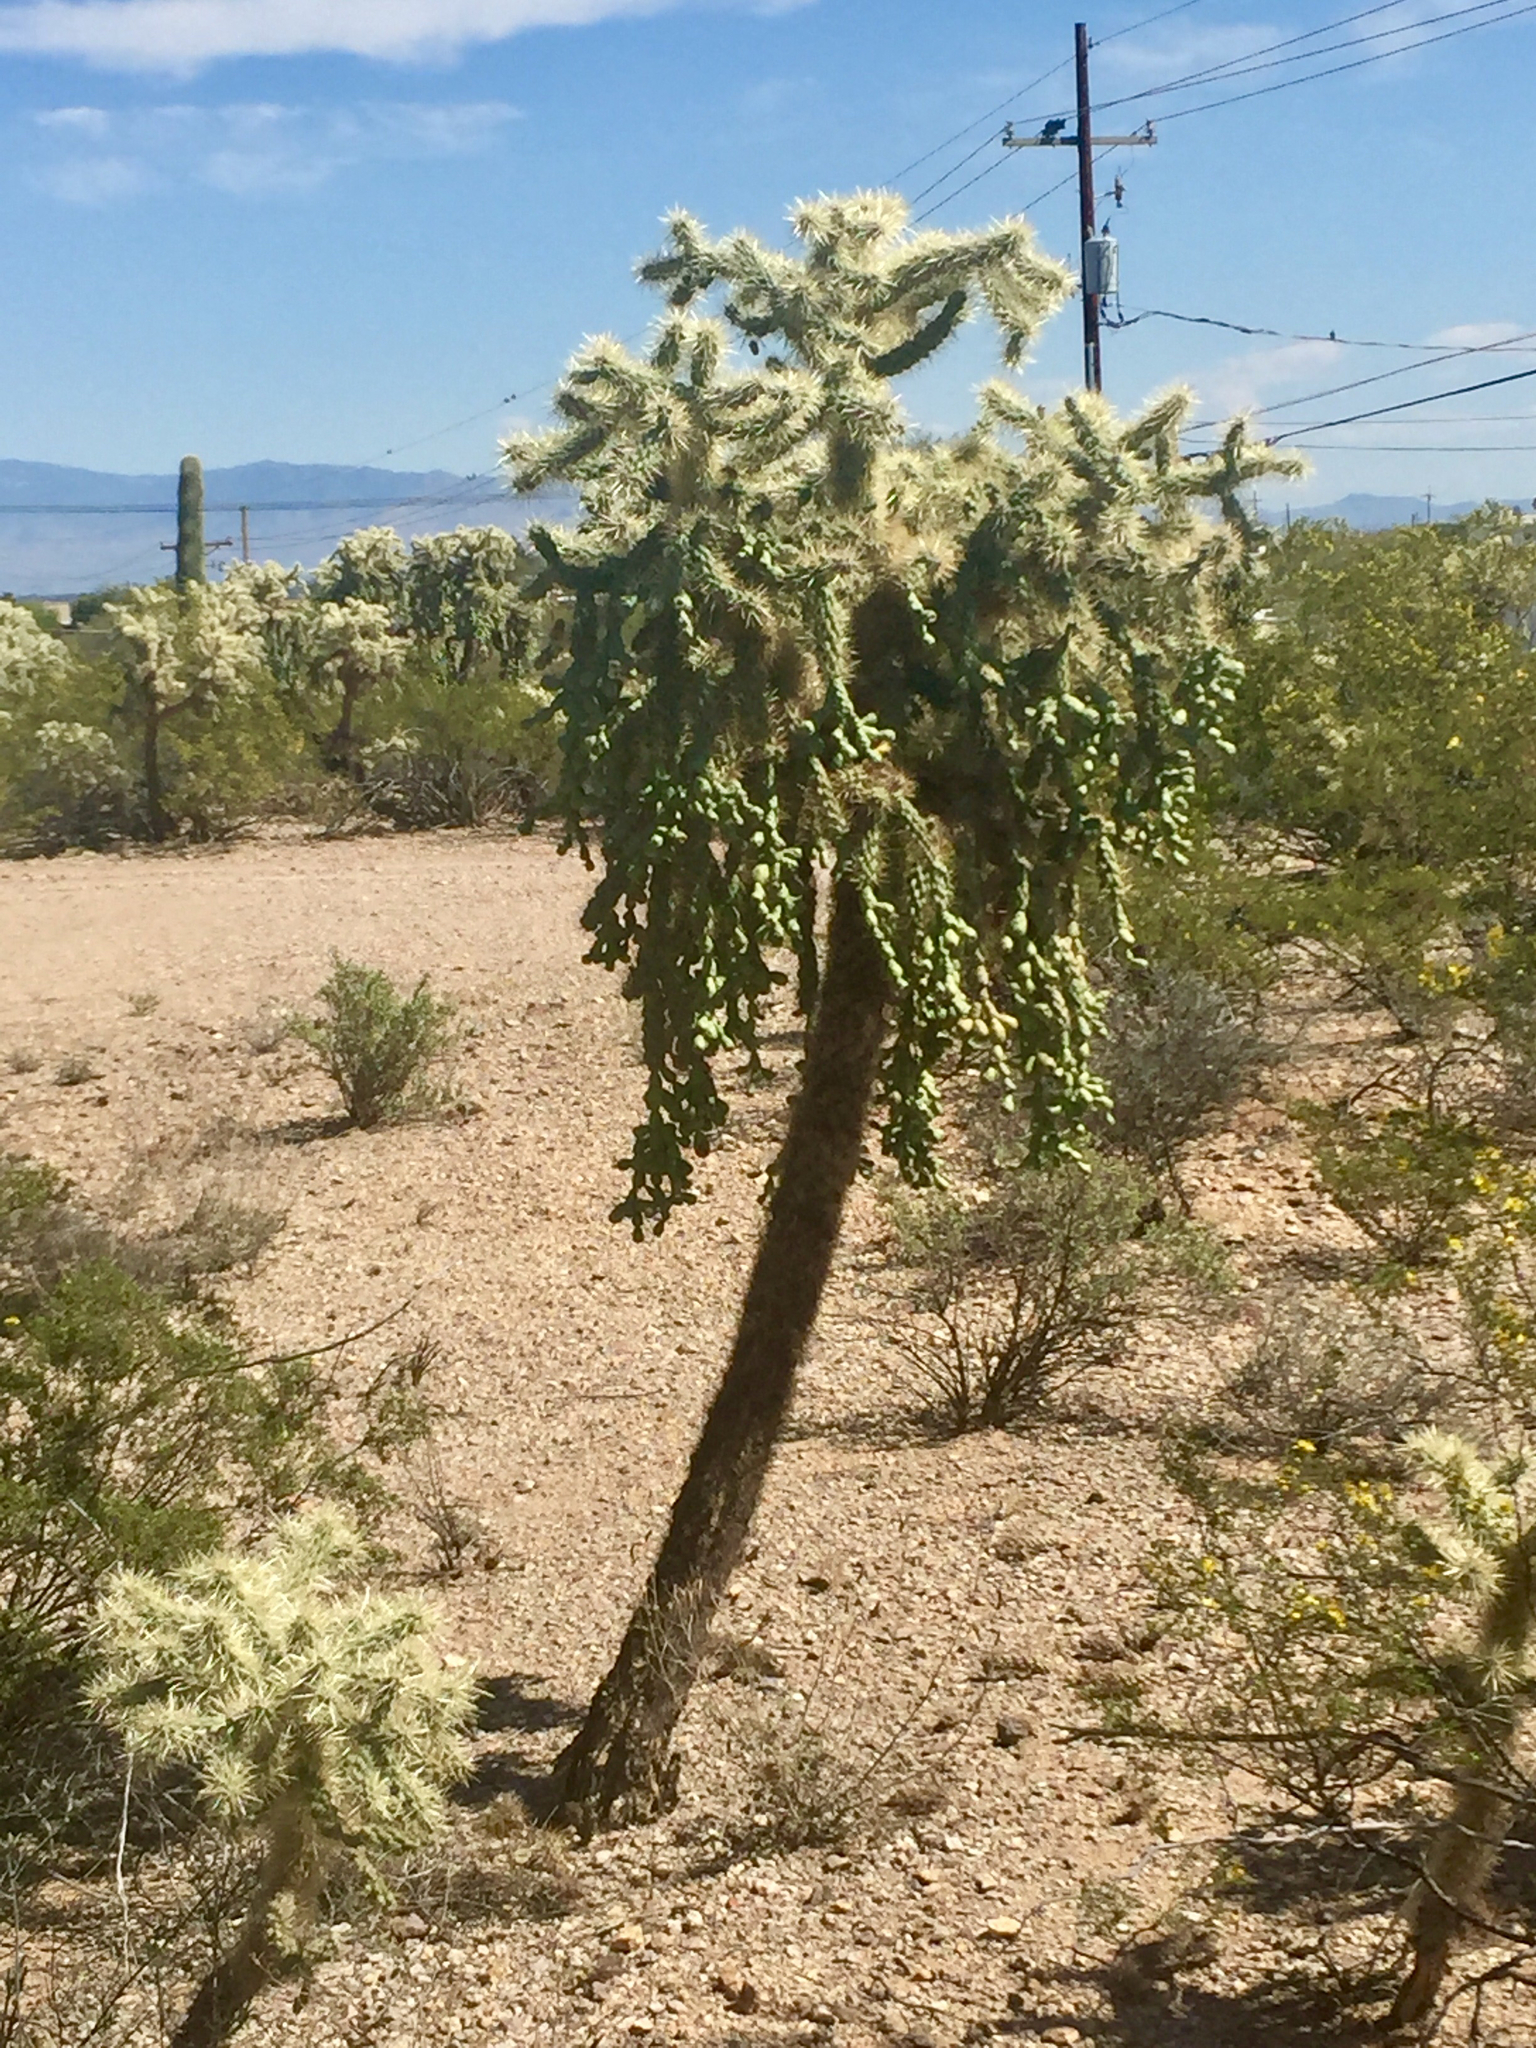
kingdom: Plantae
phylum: Tracheophyta
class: Magnoliopsida
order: Caryophyllales
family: Cactaceae
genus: Cylindropuntia
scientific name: Cylindropuntia fulgida
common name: Jumping cholla
